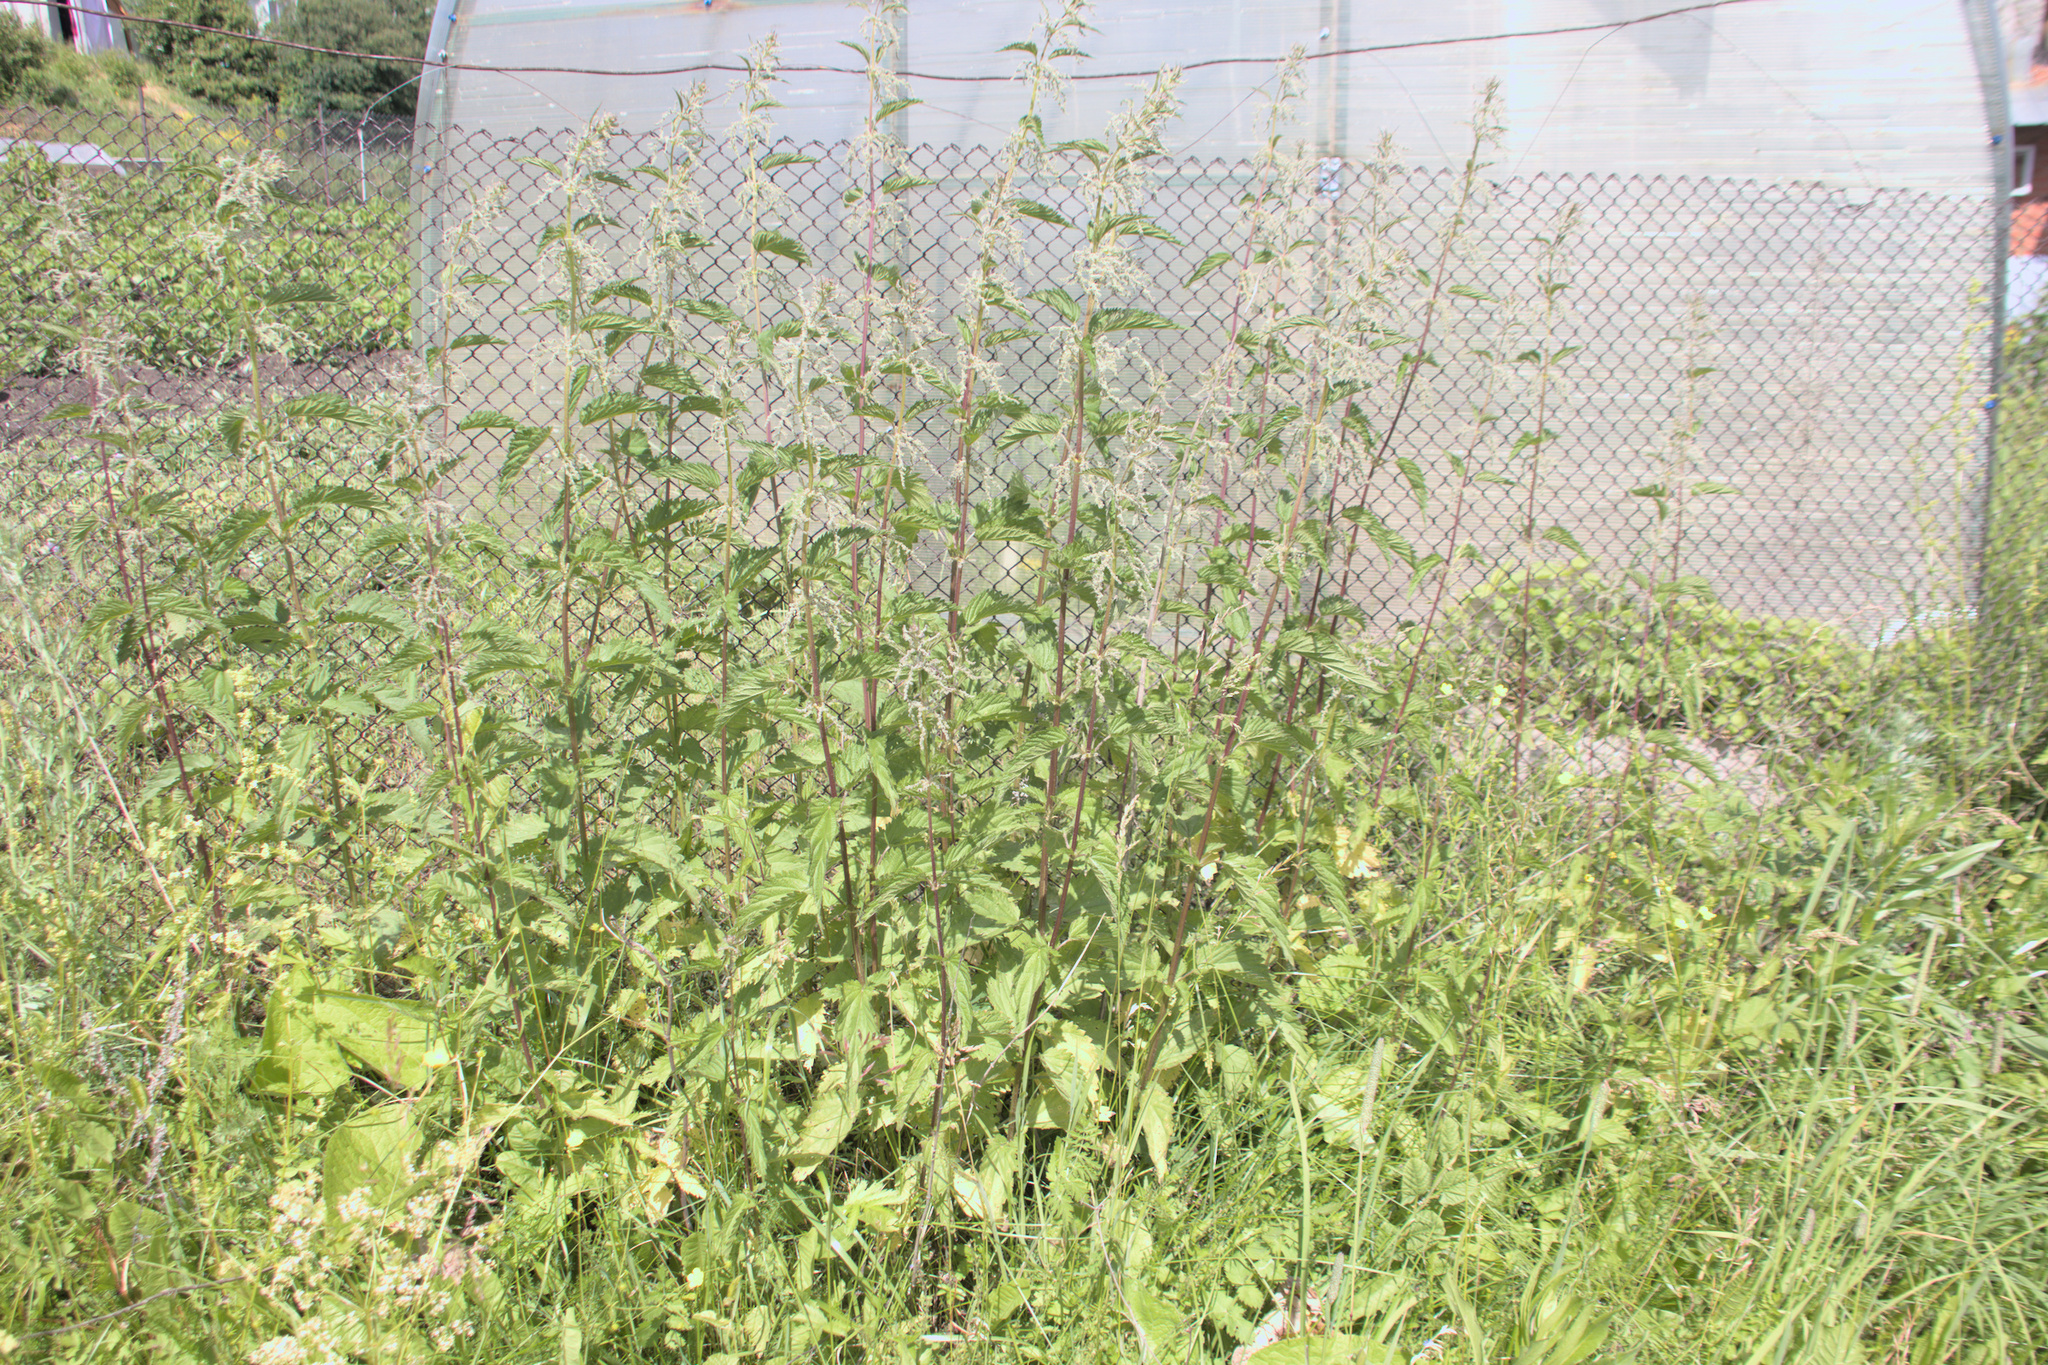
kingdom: Plantae
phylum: Tracheophyta
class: Magnoliopsida
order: Rosales
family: Urticaceae
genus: Urtica
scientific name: Urtica dioica
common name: Common nettle
